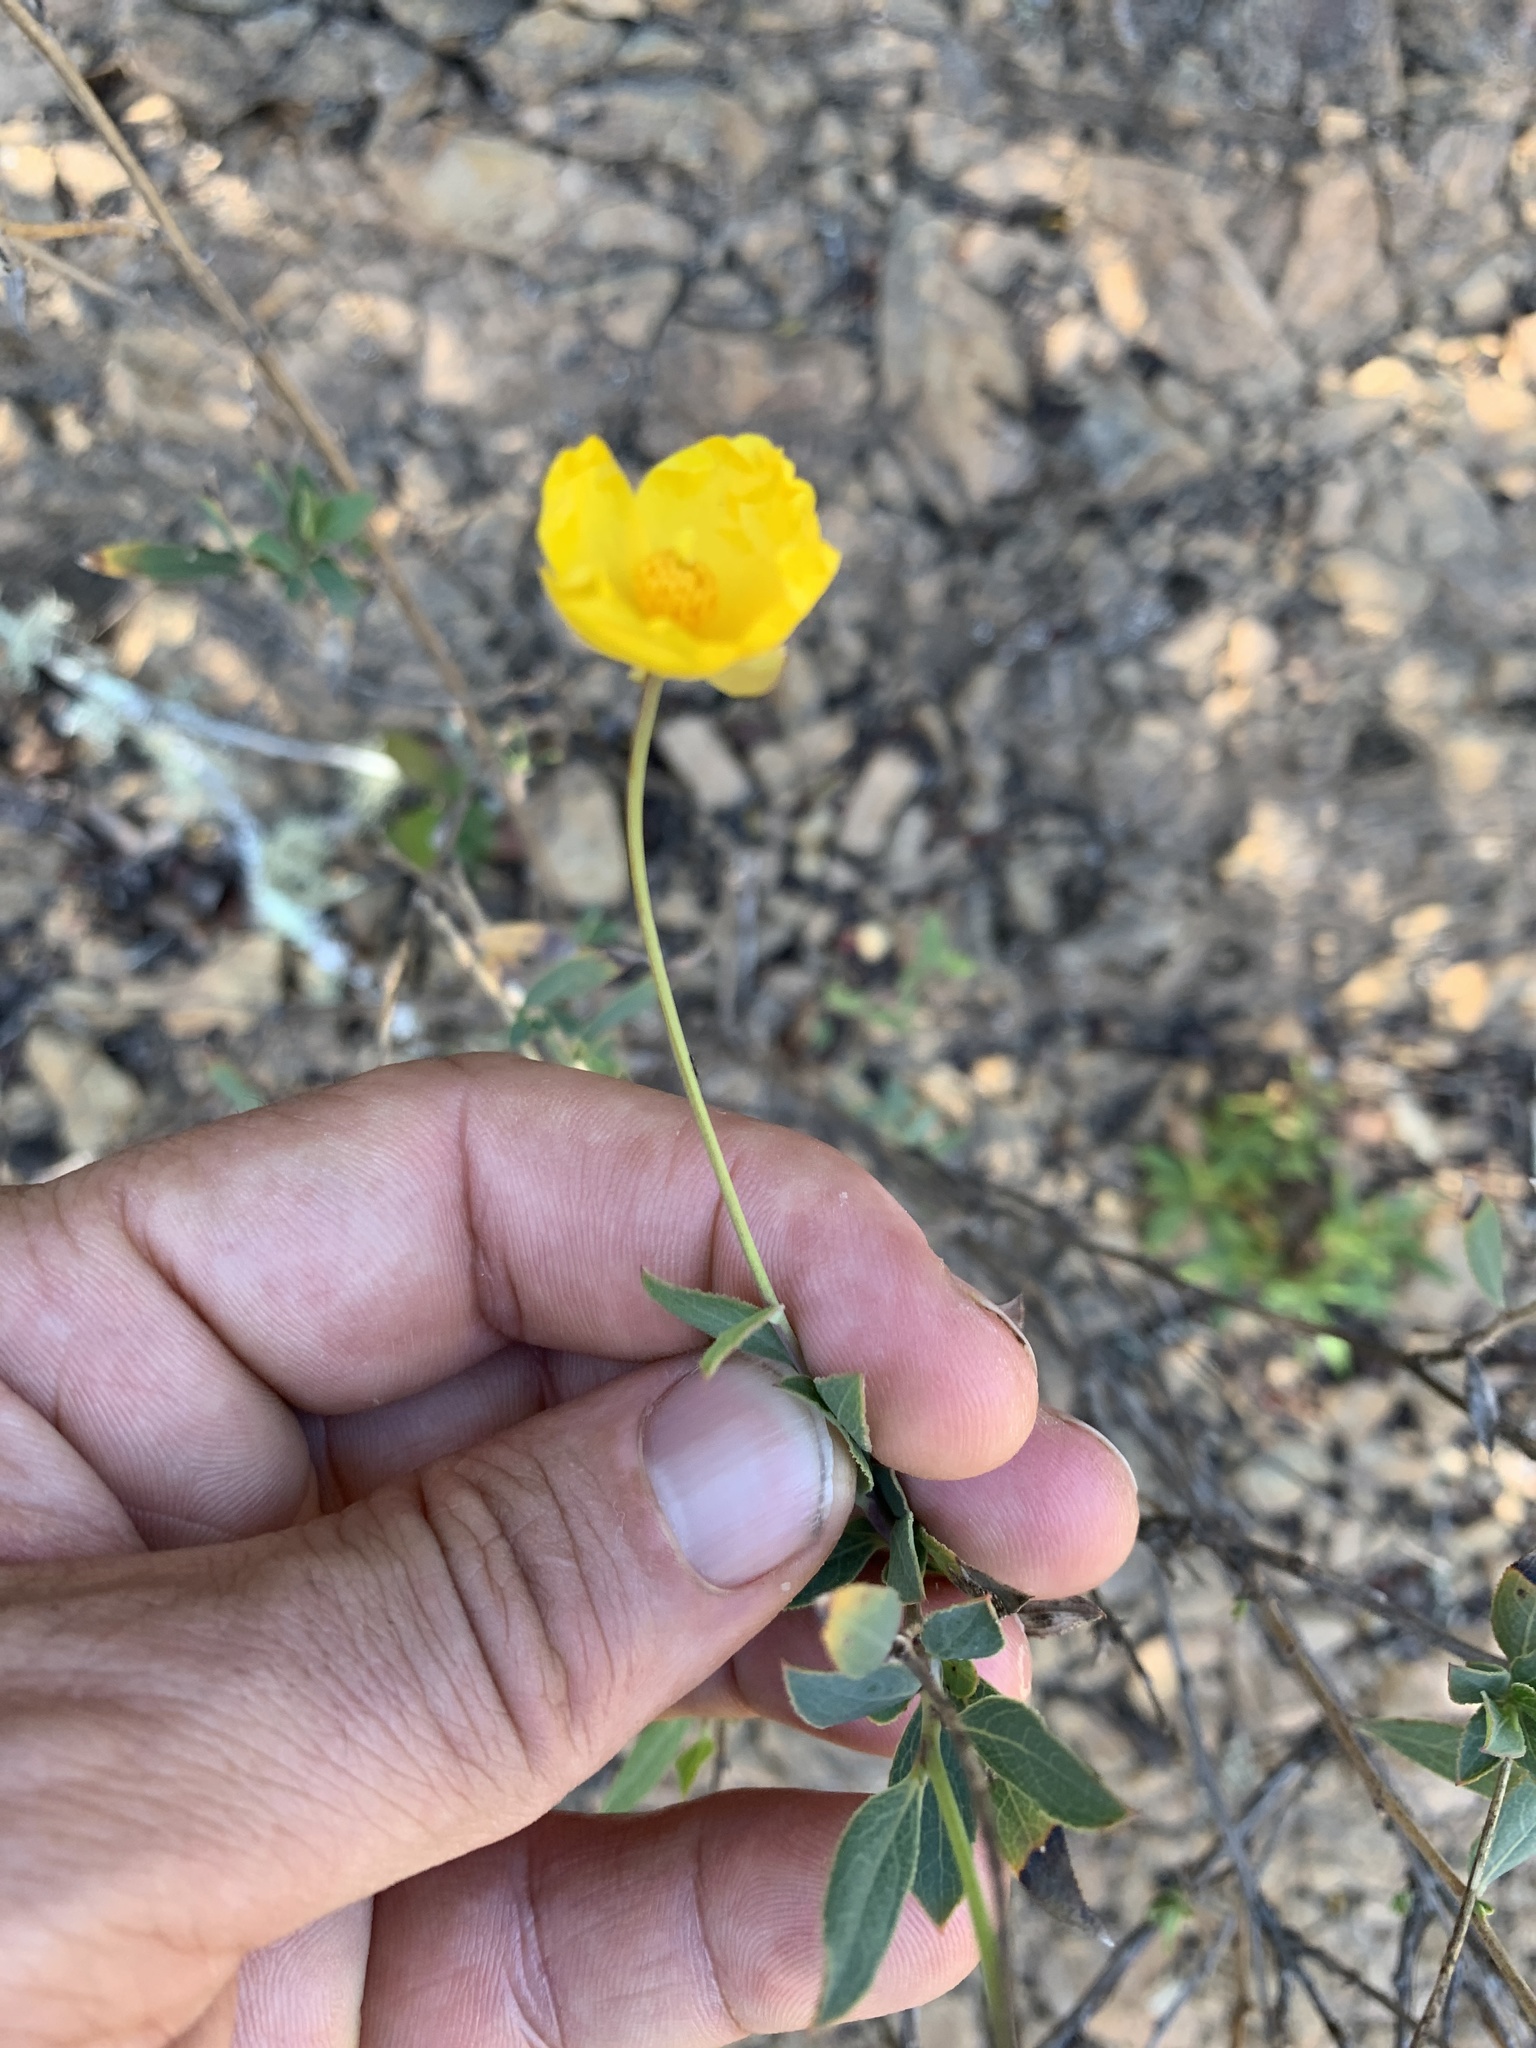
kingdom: Plantae
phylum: Tracheophyta
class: Magnoliopsida
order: Ranunculales
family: Papaveraceae
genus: Dendromecon
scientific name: Dendromecon rigida
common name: Tree poppy
